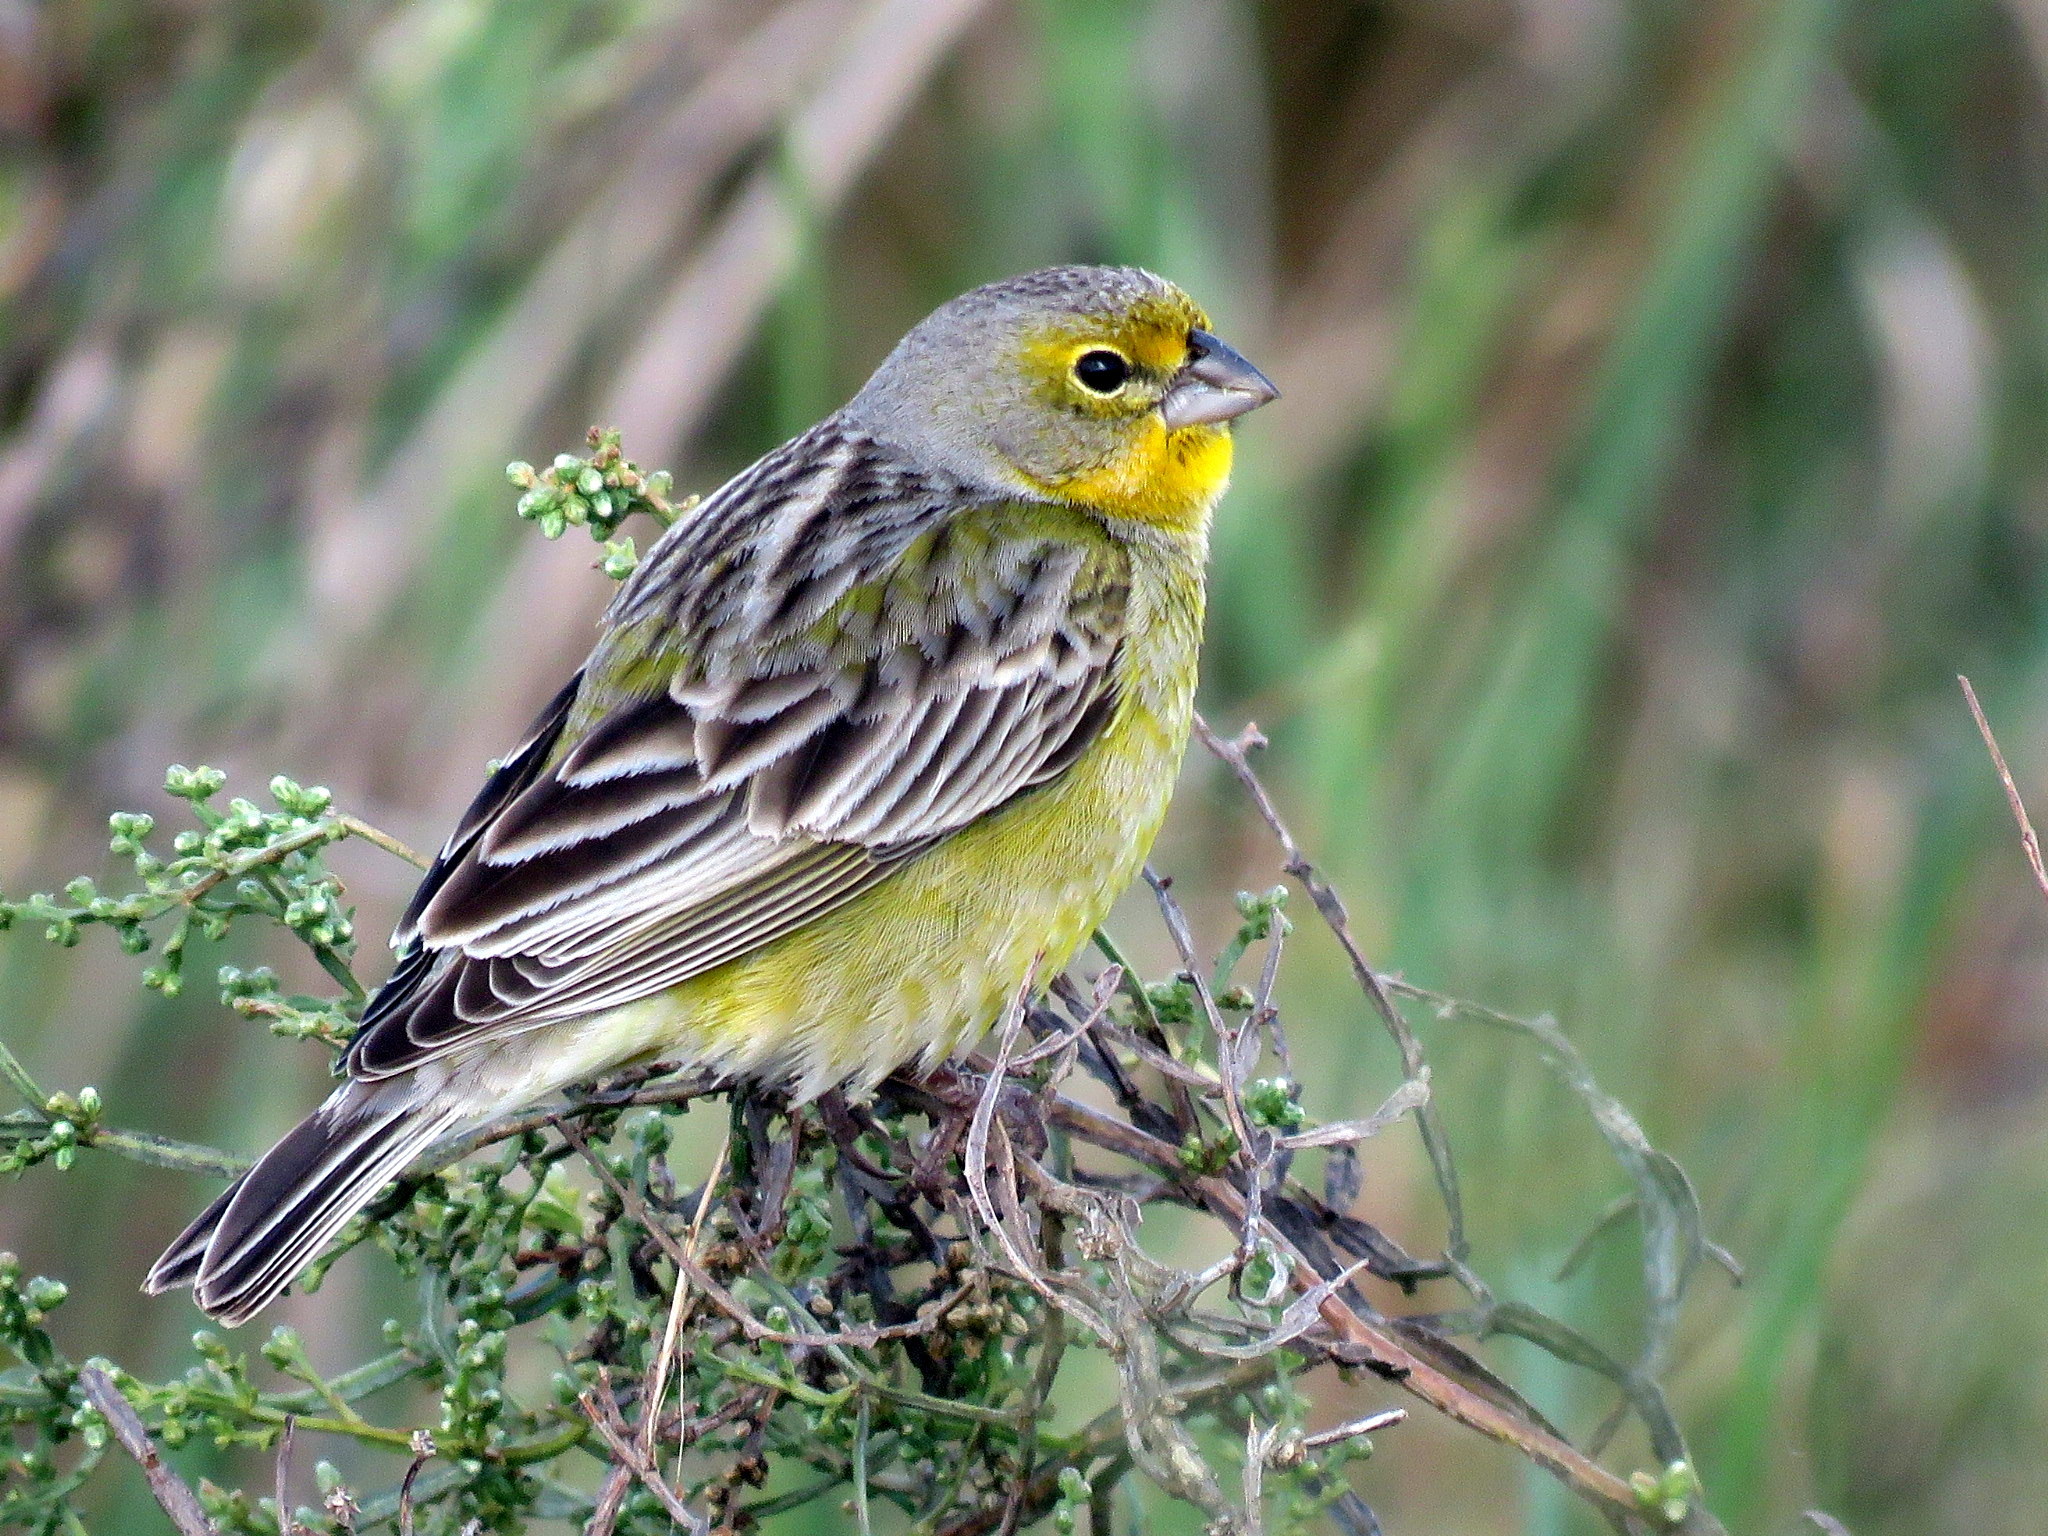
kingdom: Animalia
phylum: Chordata
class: Aves
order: Passeriformes
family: Thraupidae
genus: Sicalis
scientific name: Sicalis luteola
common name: Grassland yellow-finch
